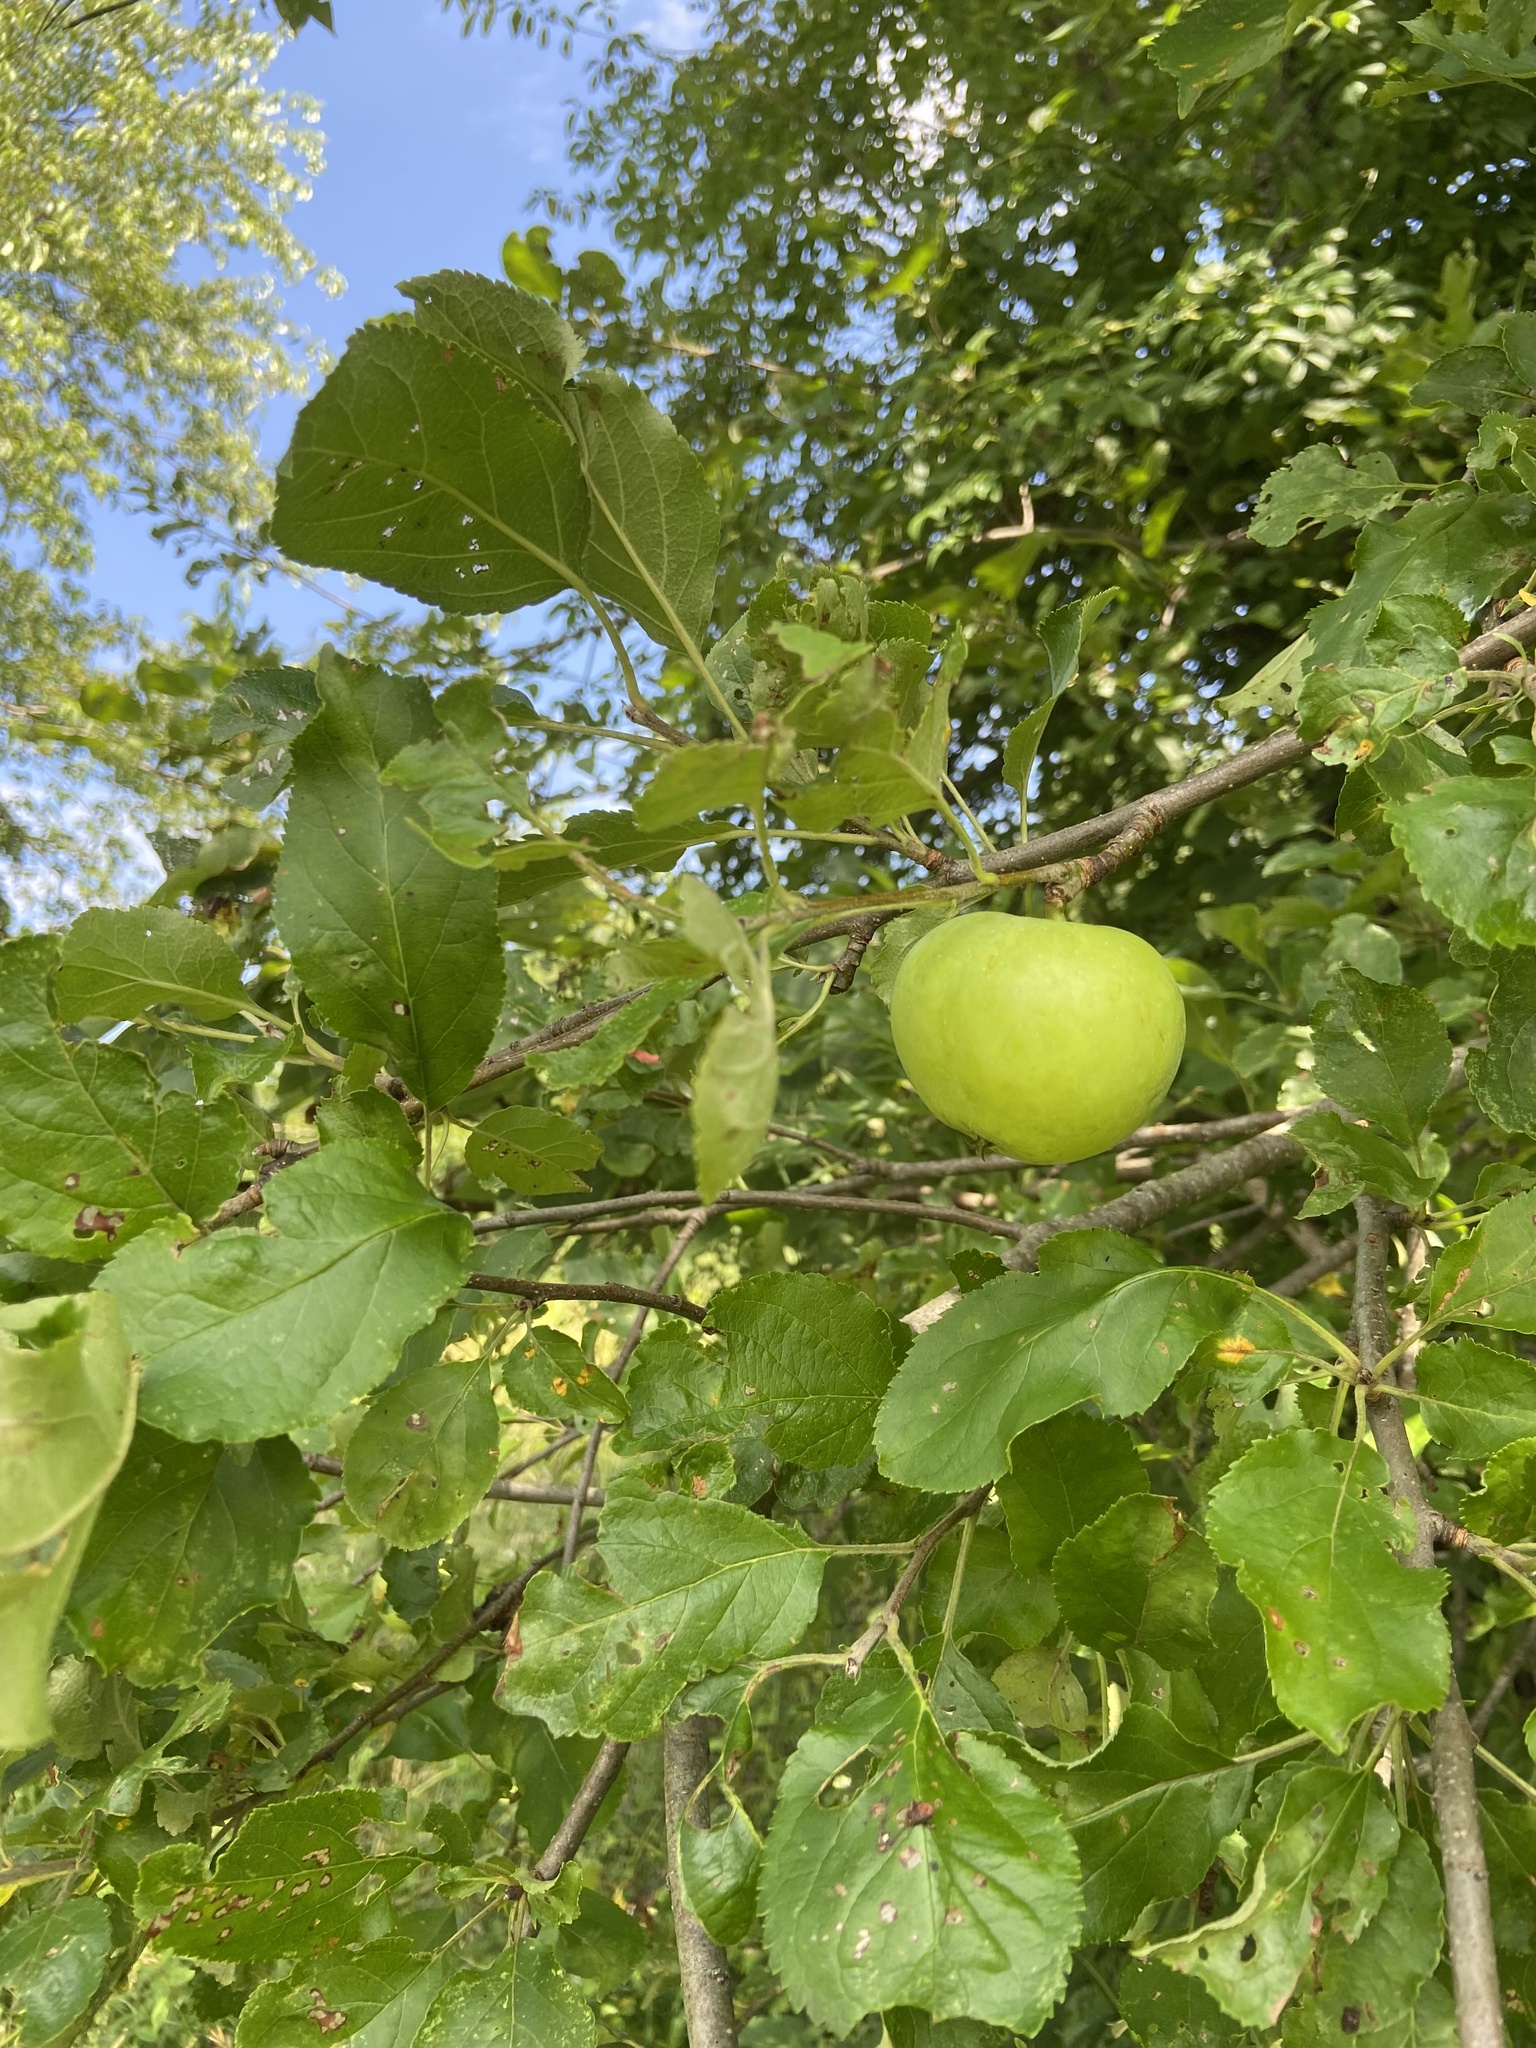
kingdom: Plantae
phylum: Tracheophyta
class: Magnoliopsida
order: Rosales
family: Rosaceae
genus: Malus
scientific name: Malus domestica
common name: Apple
